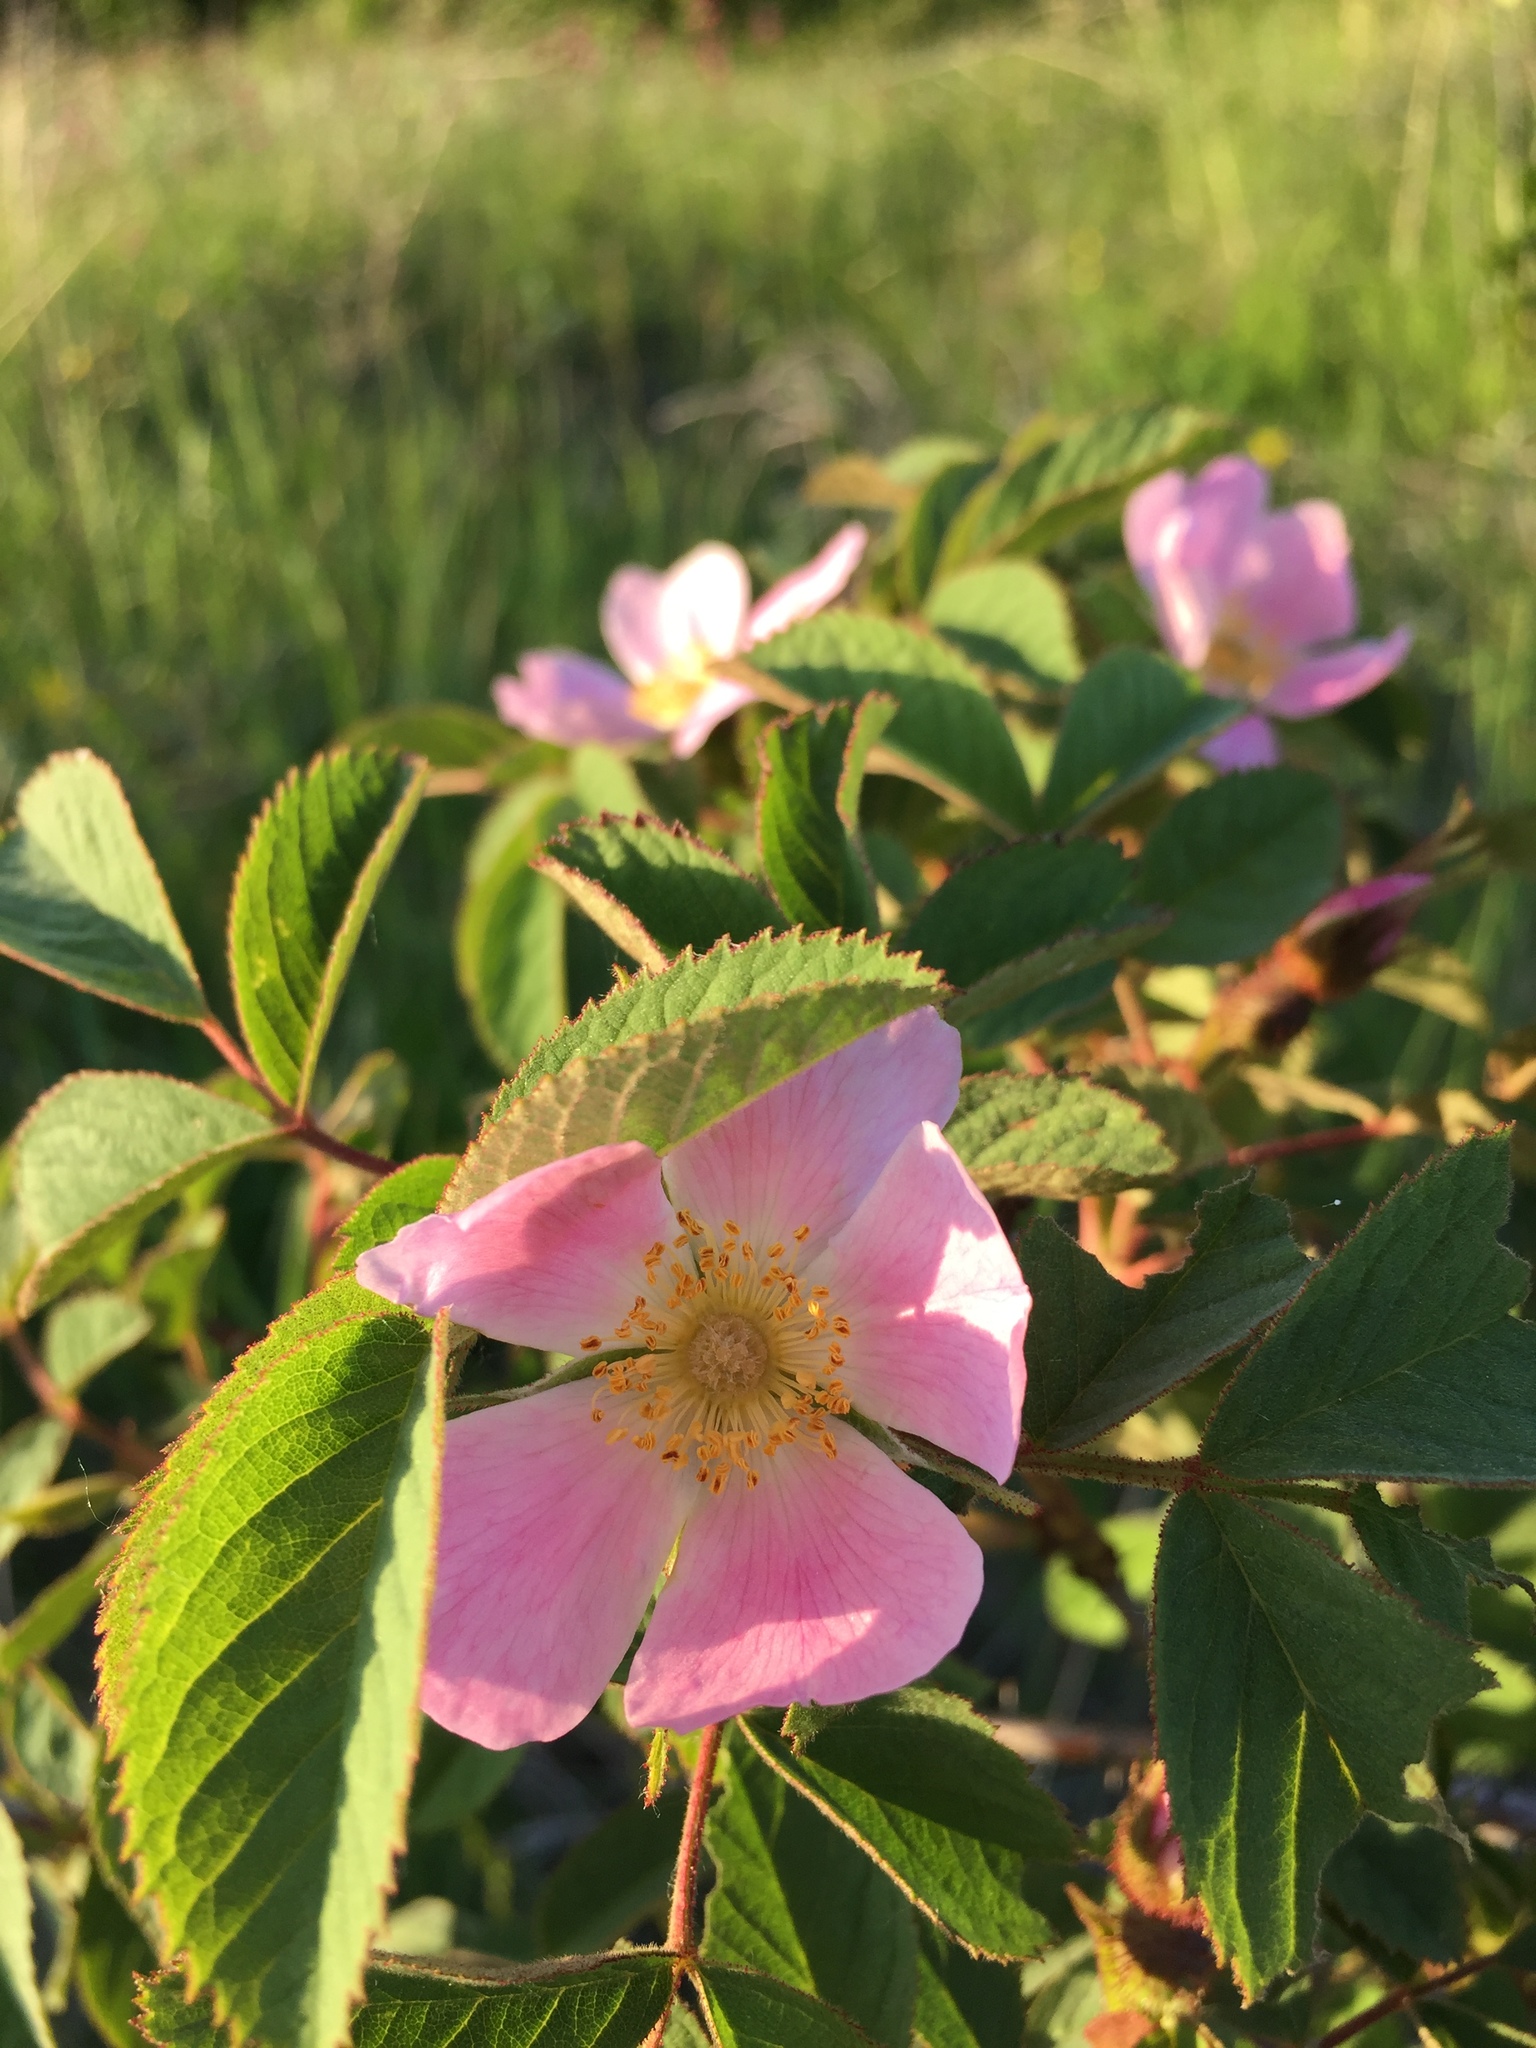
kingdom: Plantae
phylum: Tracheophyta
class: Magnoliopsida
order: Rosales
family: Rosaceae
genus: Rosa
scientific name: Rosa
